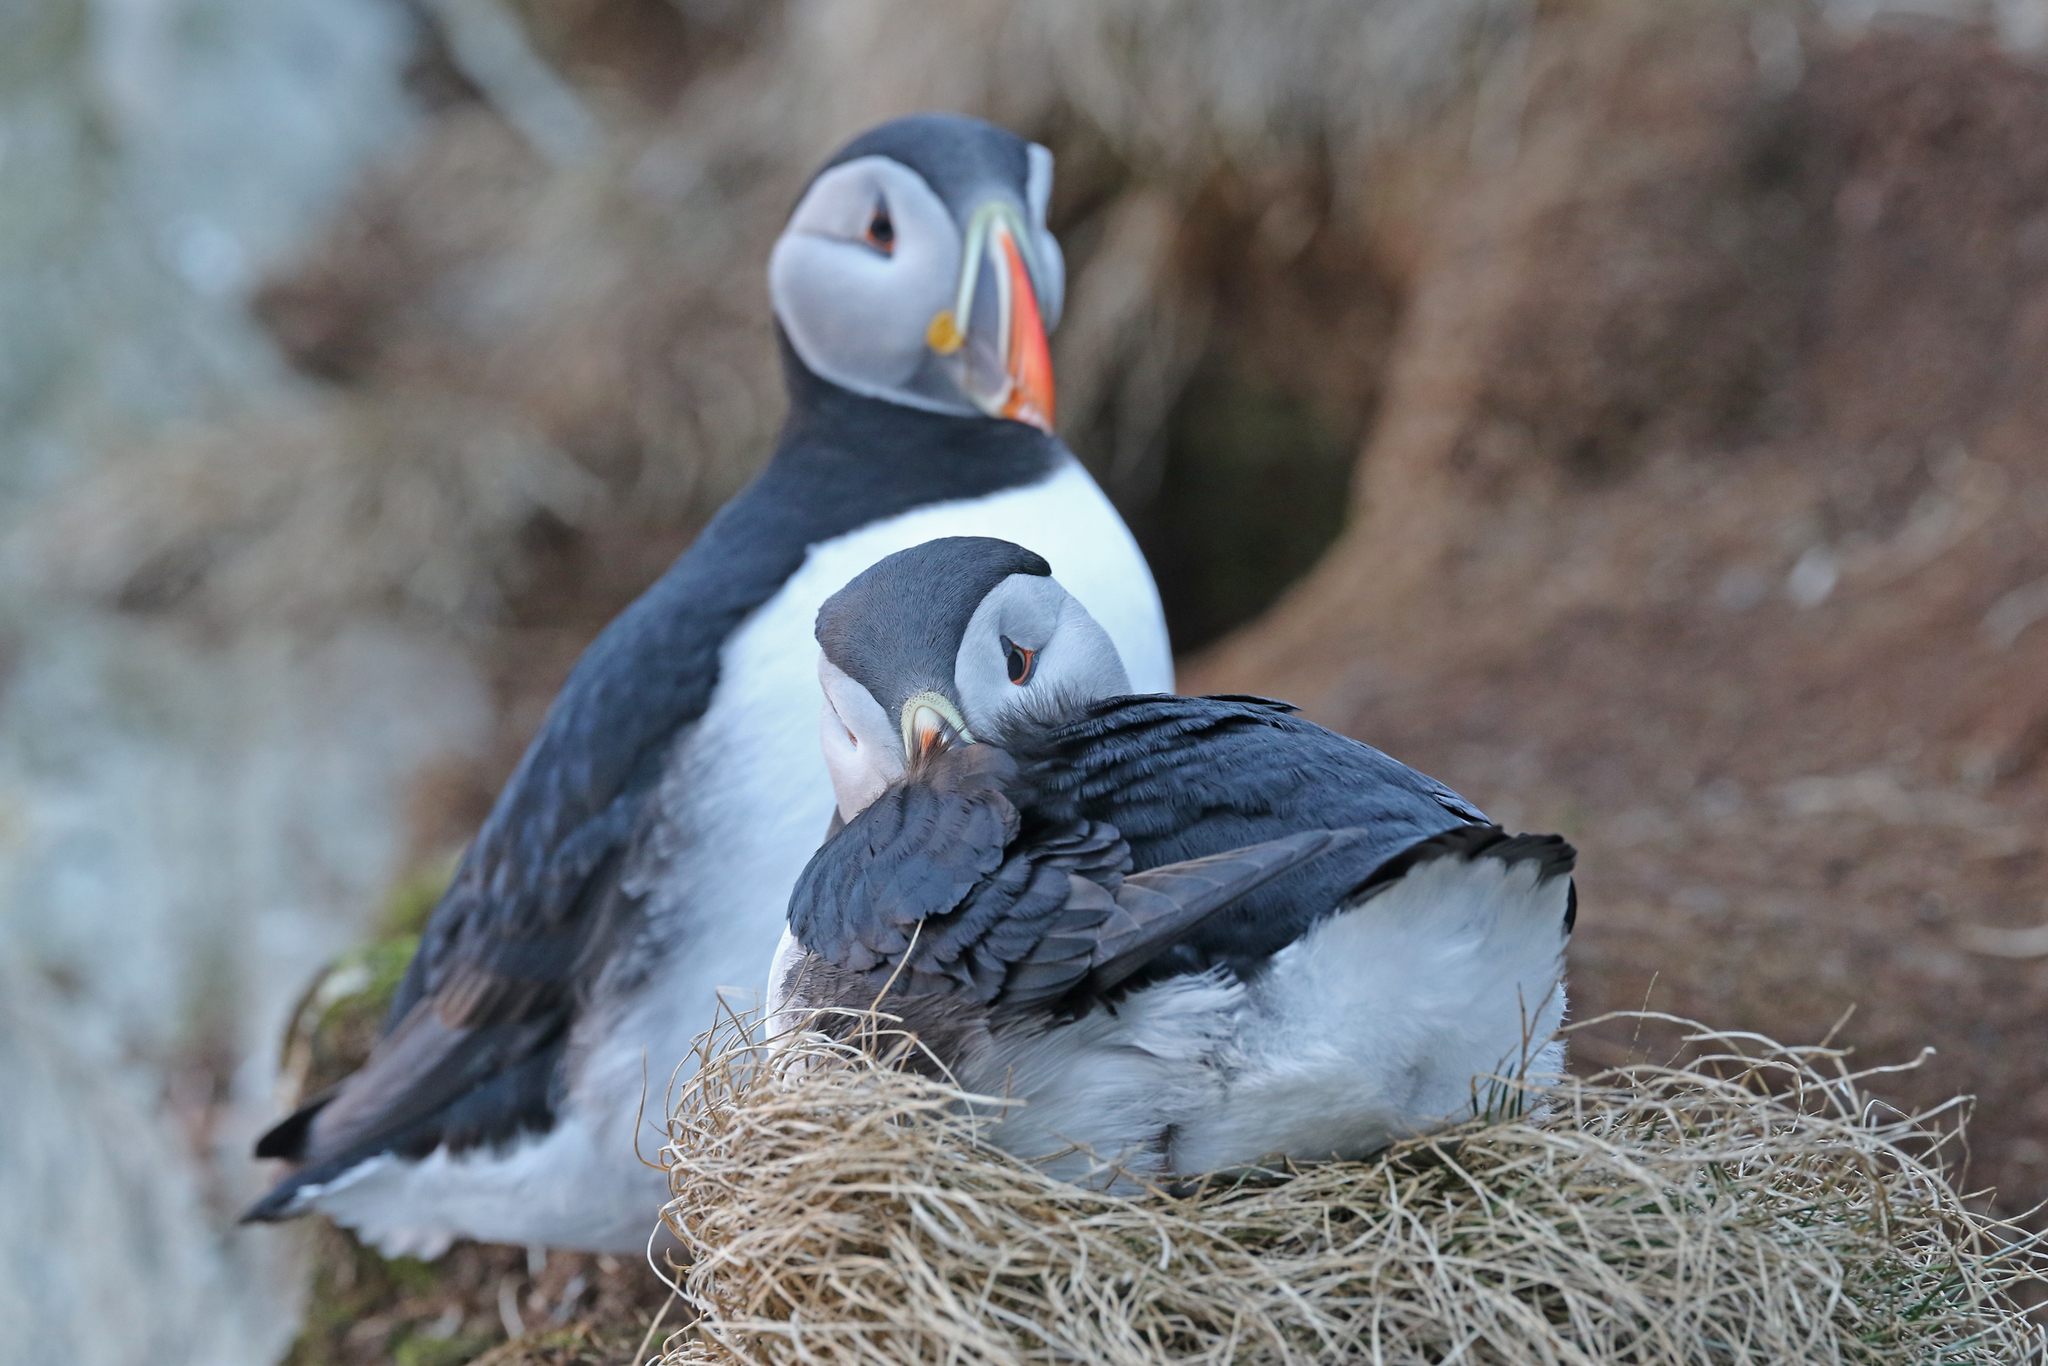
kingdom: Animalia
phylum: Chordata
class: Aves
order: Charadriiformes
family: Alcidae
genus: Fratercula
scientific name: Fratercula arctica
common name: Atlantic puffin
